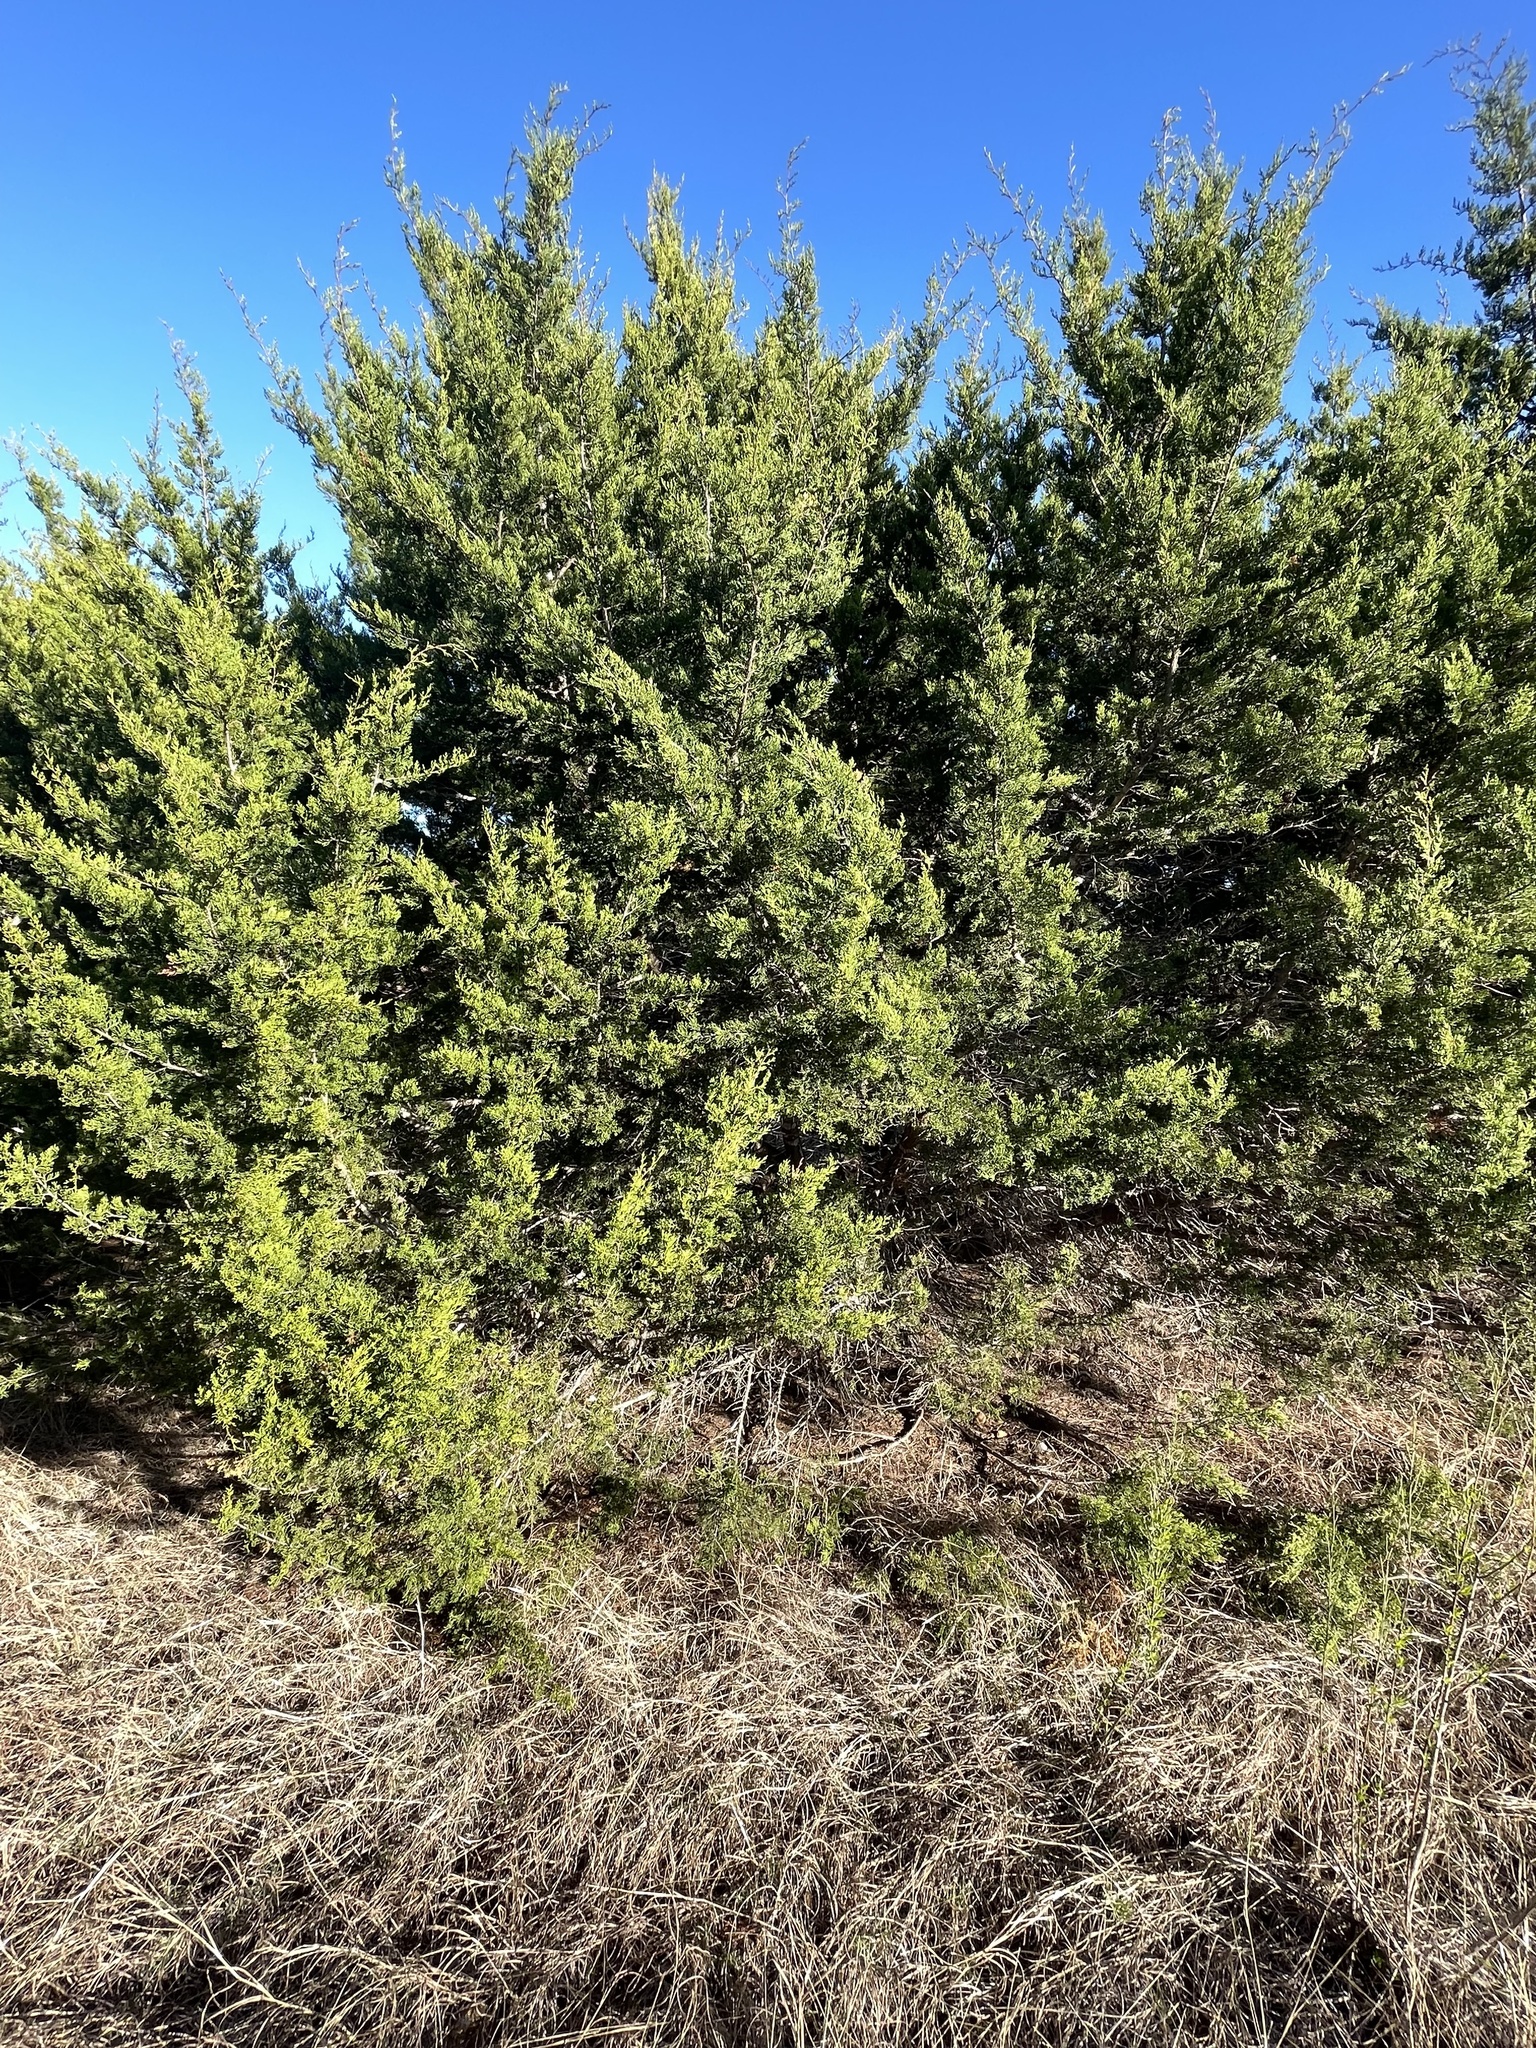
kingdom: Plantae
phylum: Tracheophyta
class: Pinopsida
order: Pinales
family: Cupressaceae
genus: Juniperus
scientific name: Juniperus ashei
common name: Mexican juniper
